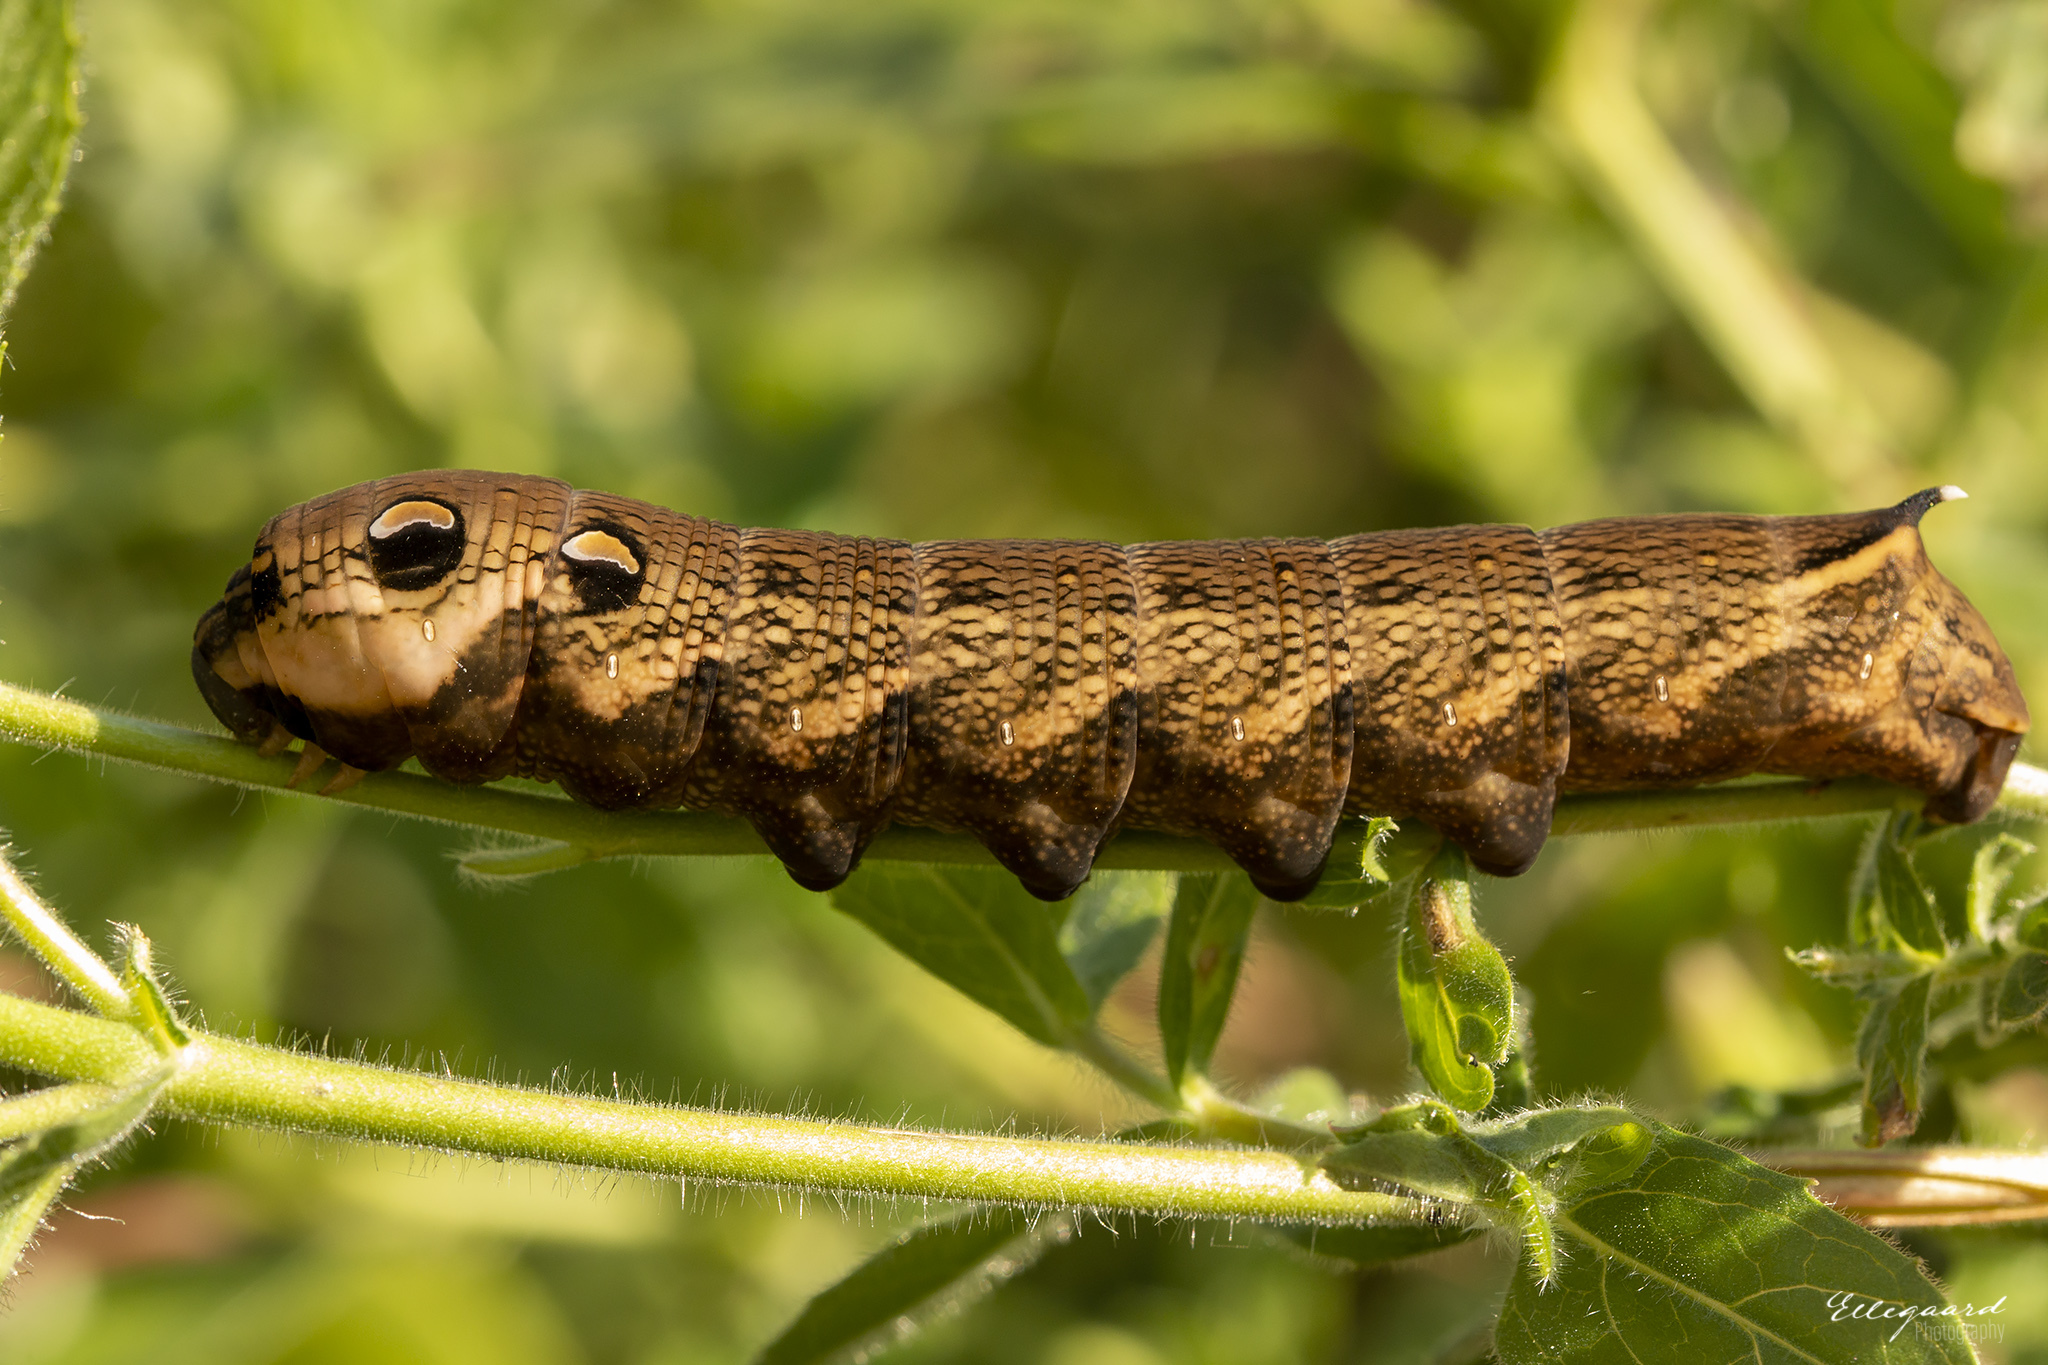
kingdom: Animalia
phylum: Arthropoda
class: Insecta
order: Lepidoptera
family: Sphingidae
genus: Deilephila
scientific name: Deilephila elpenor
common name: Elephant hawk-moth
